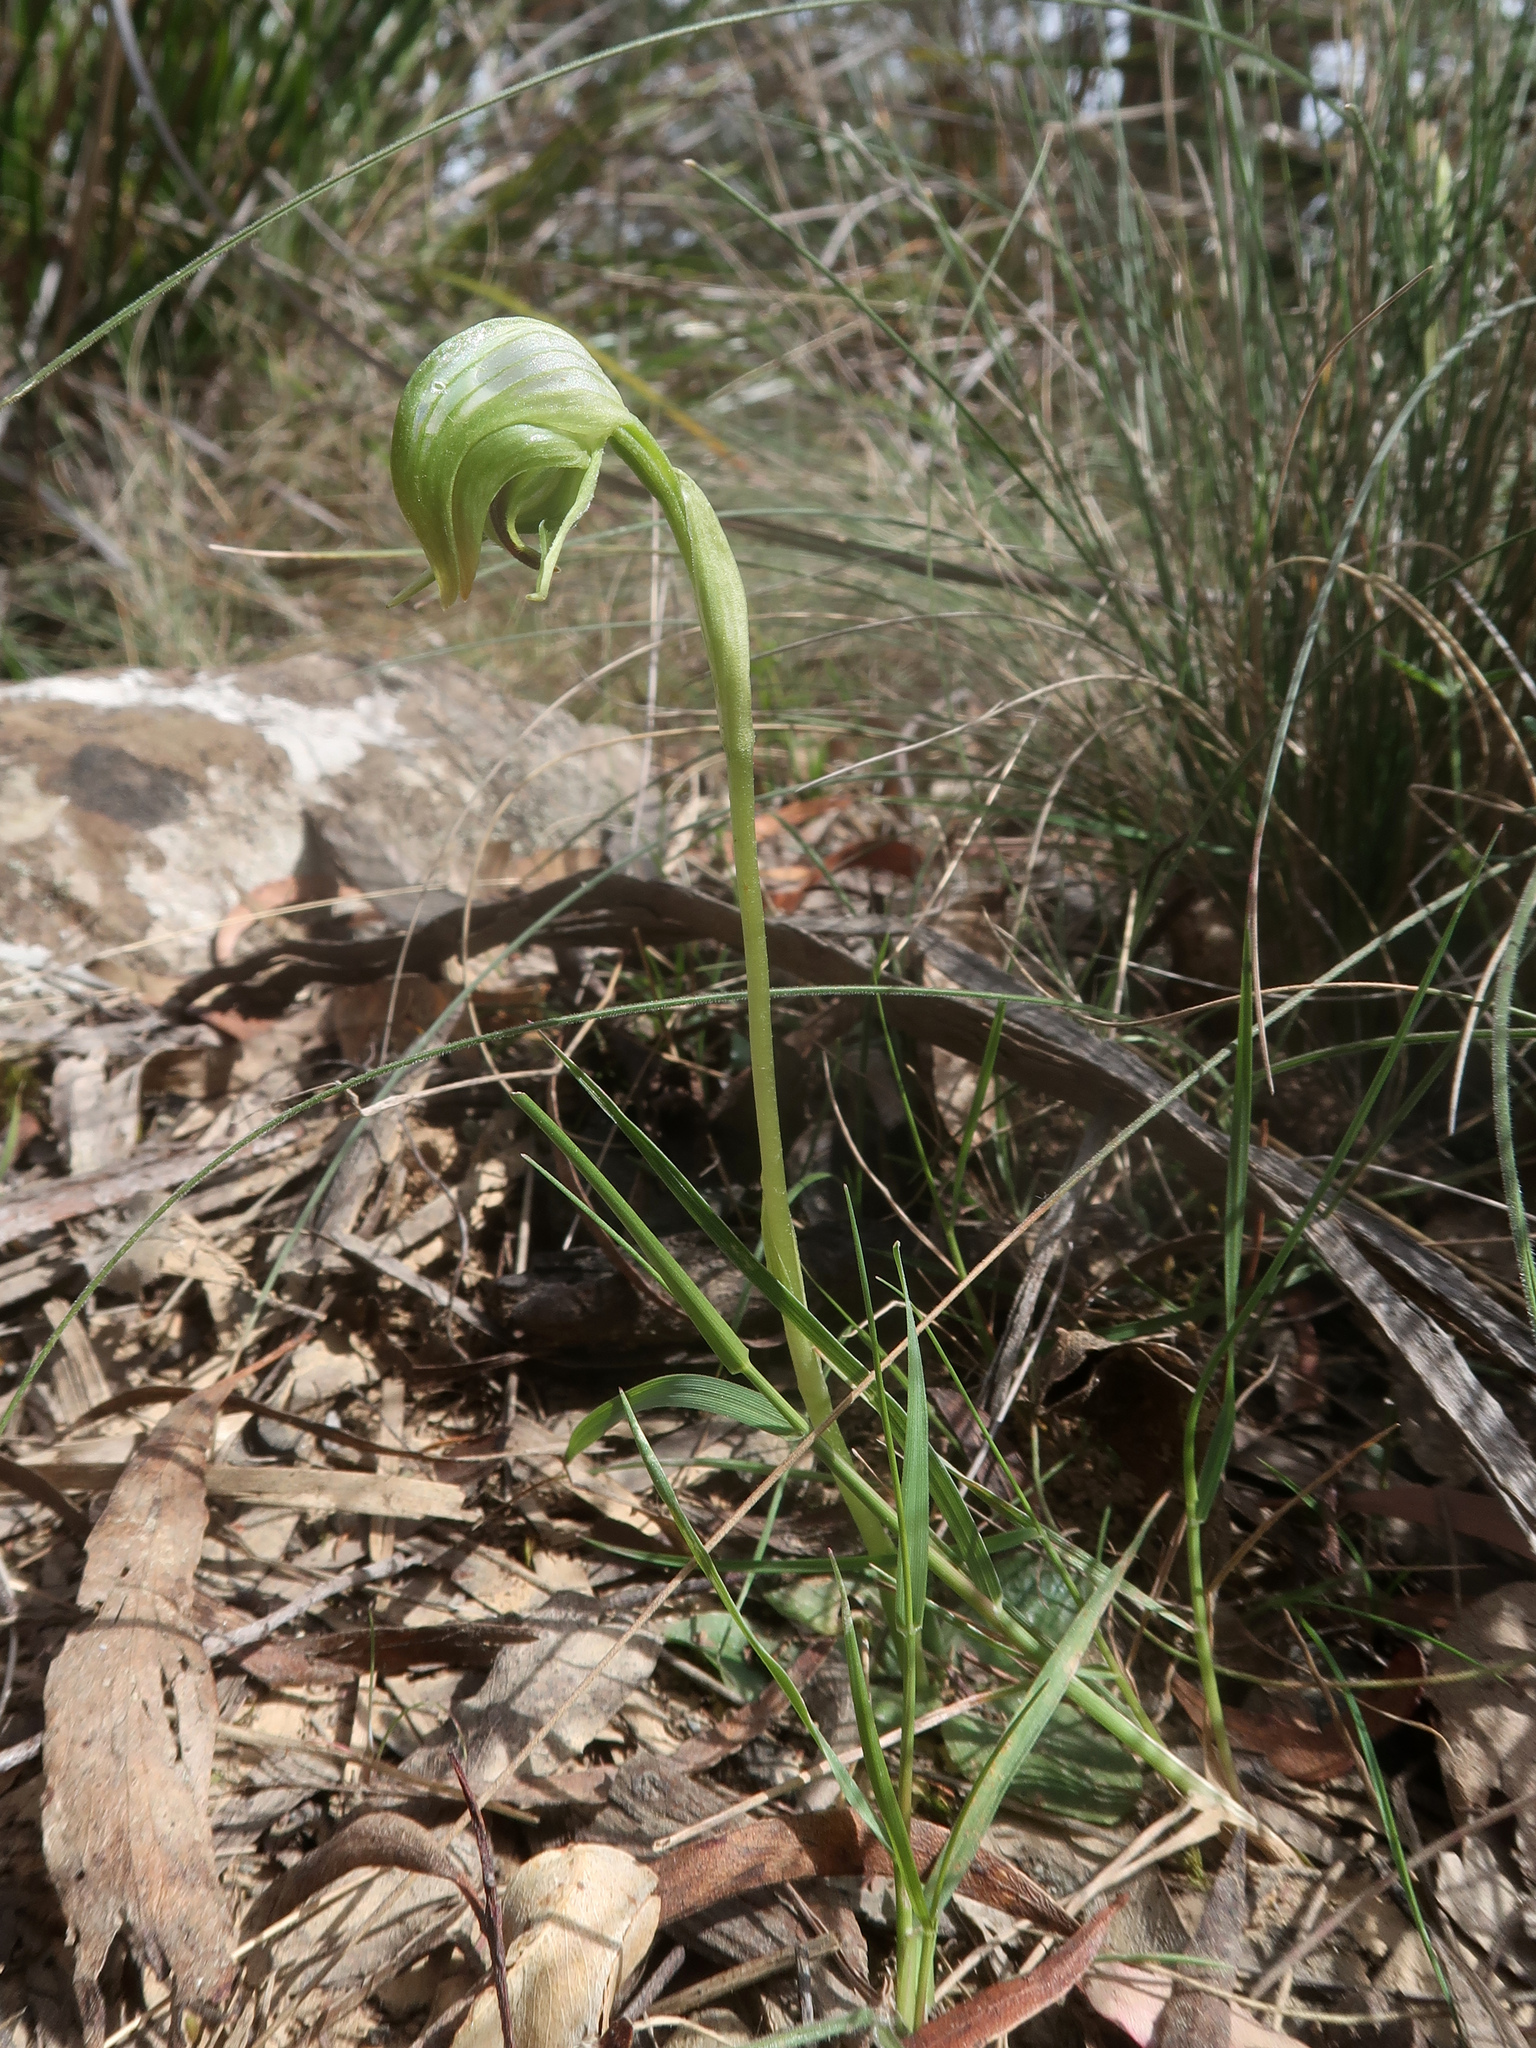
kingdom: Plantae
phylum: Tracheophyta
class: Liliopsida
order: Asparagales
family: Orchidaceae
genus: Pterostylis
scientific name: Pterostylis nutans
